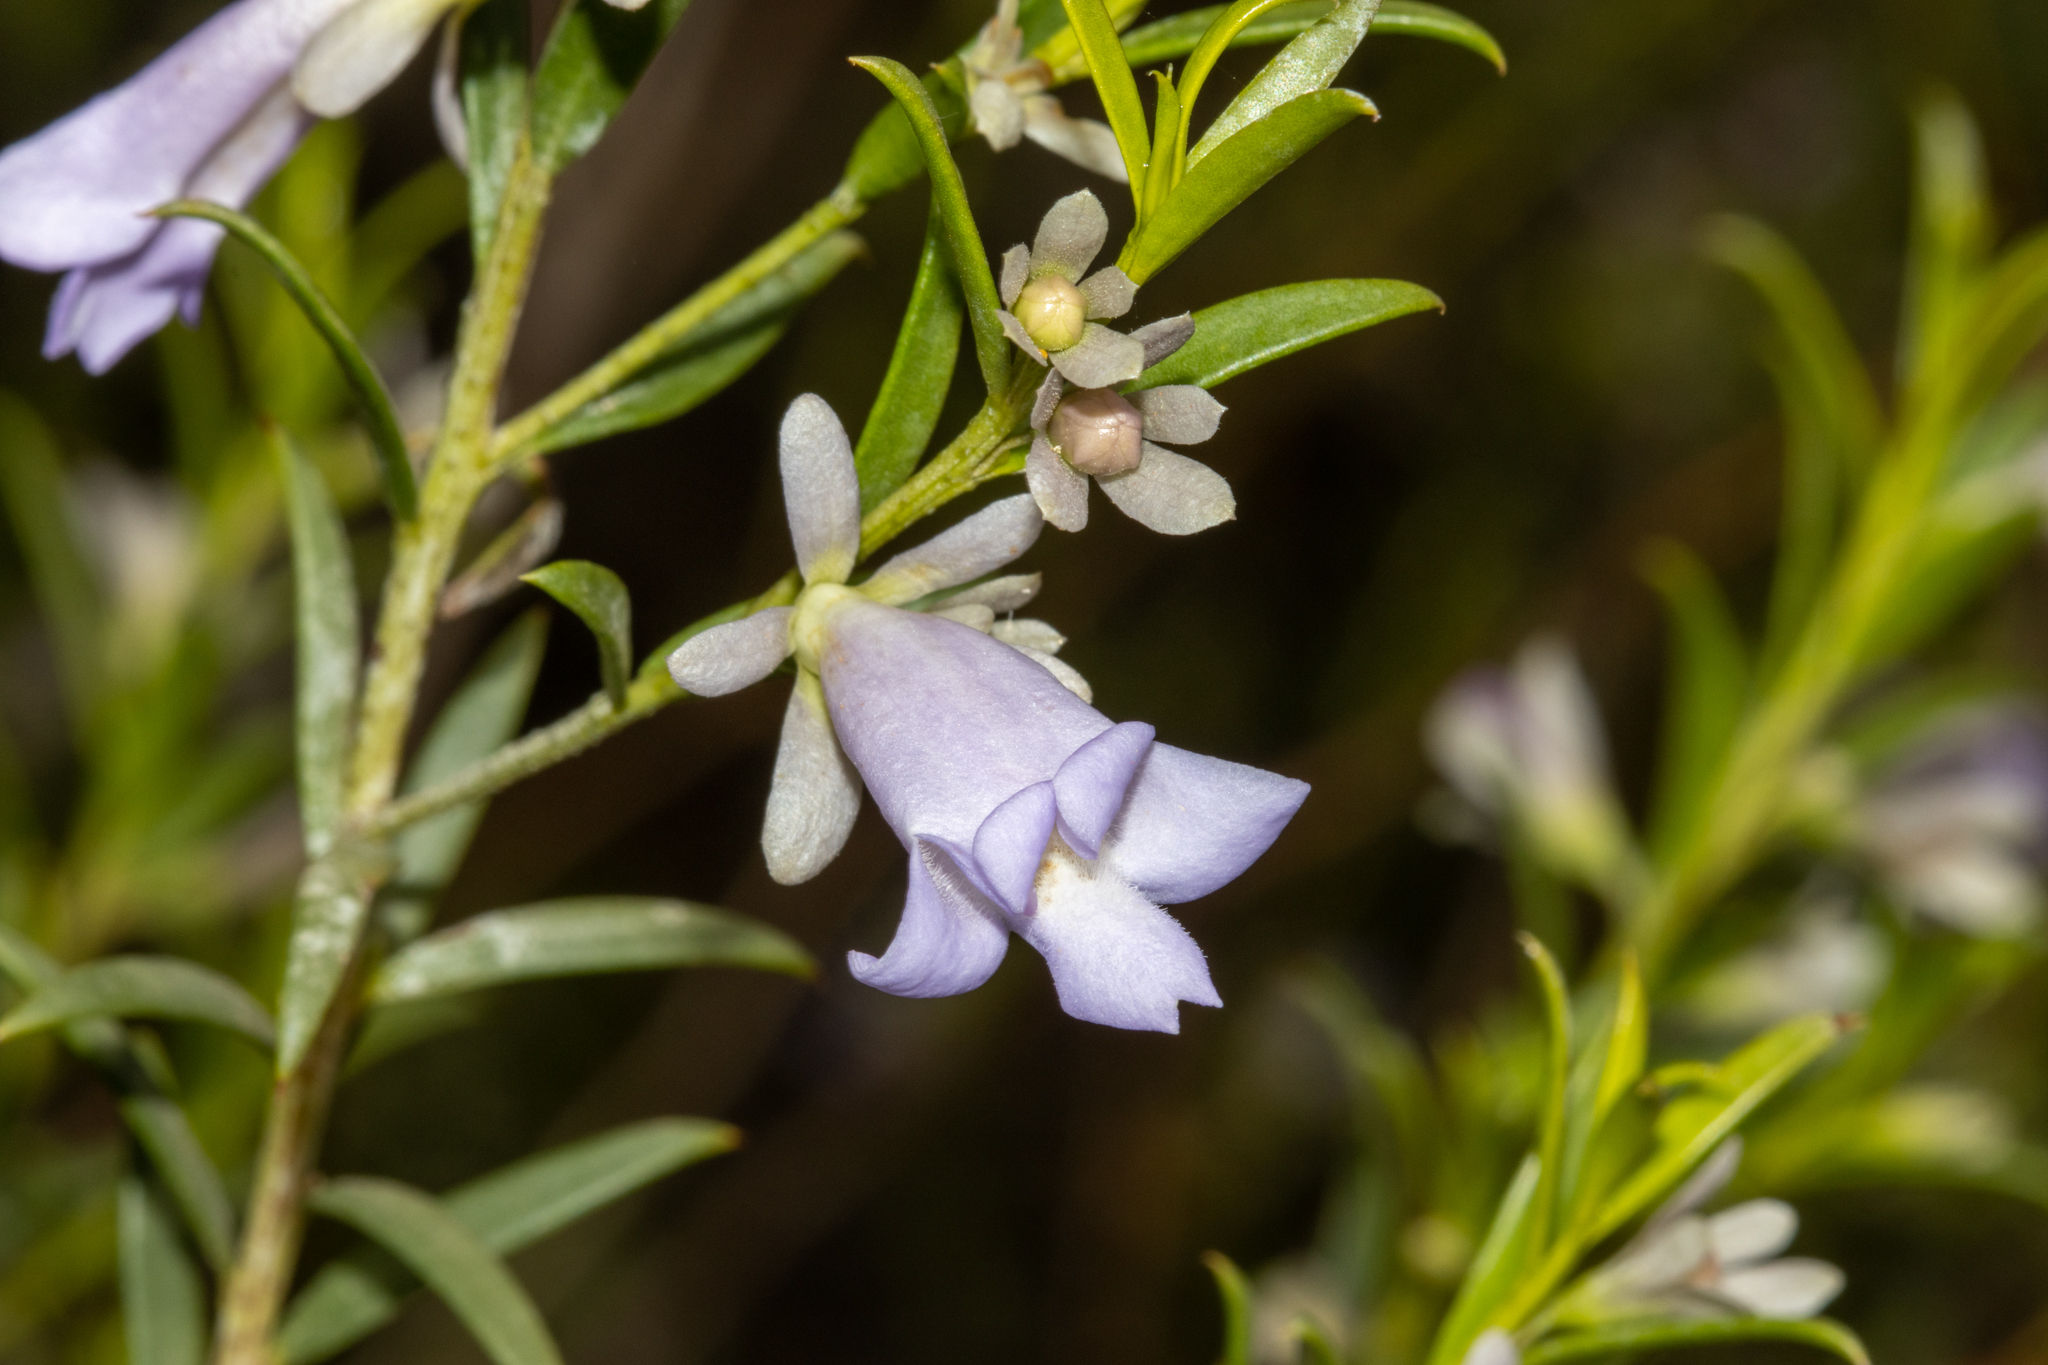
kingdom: Plantae
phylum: Tracheophyta
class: Magnoliopsida
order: Lamiales
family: Scrophulariaceae
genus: Eremophila
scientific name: Eremophila psilocalyx
